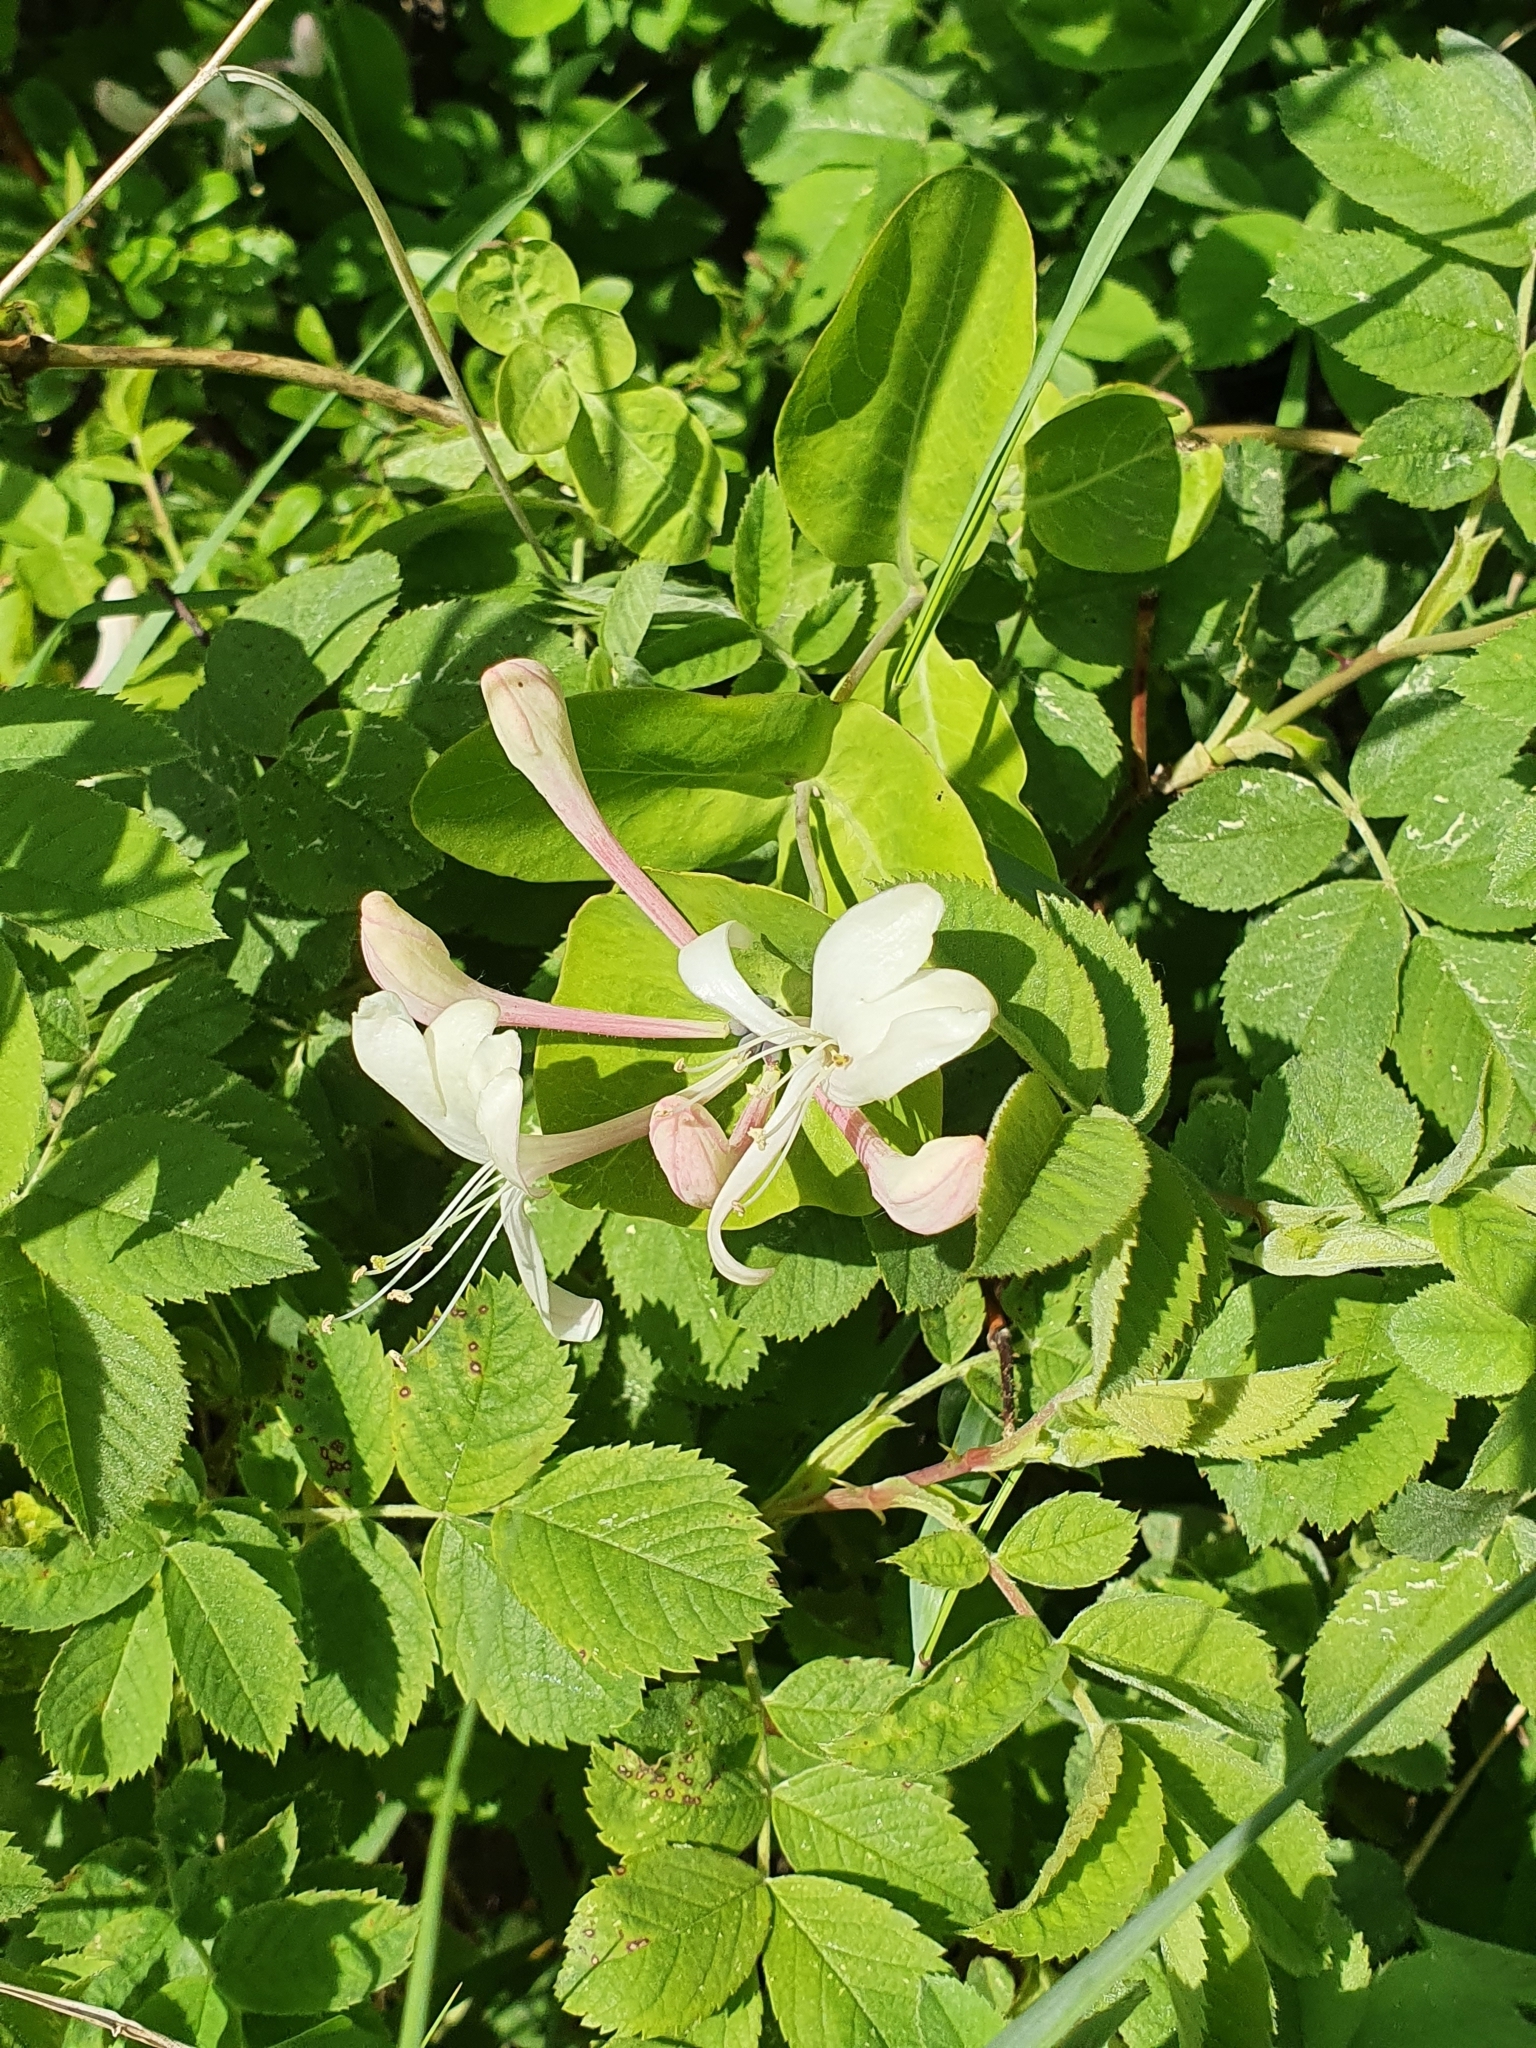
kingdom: Plantae
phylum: Tracheophyta
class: Magnoliopsida
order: Dipsacales
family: Caprifoliaceae
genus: Lonicera
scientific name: Lonicera caprifolium
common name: Perfoliate honeysuckle
